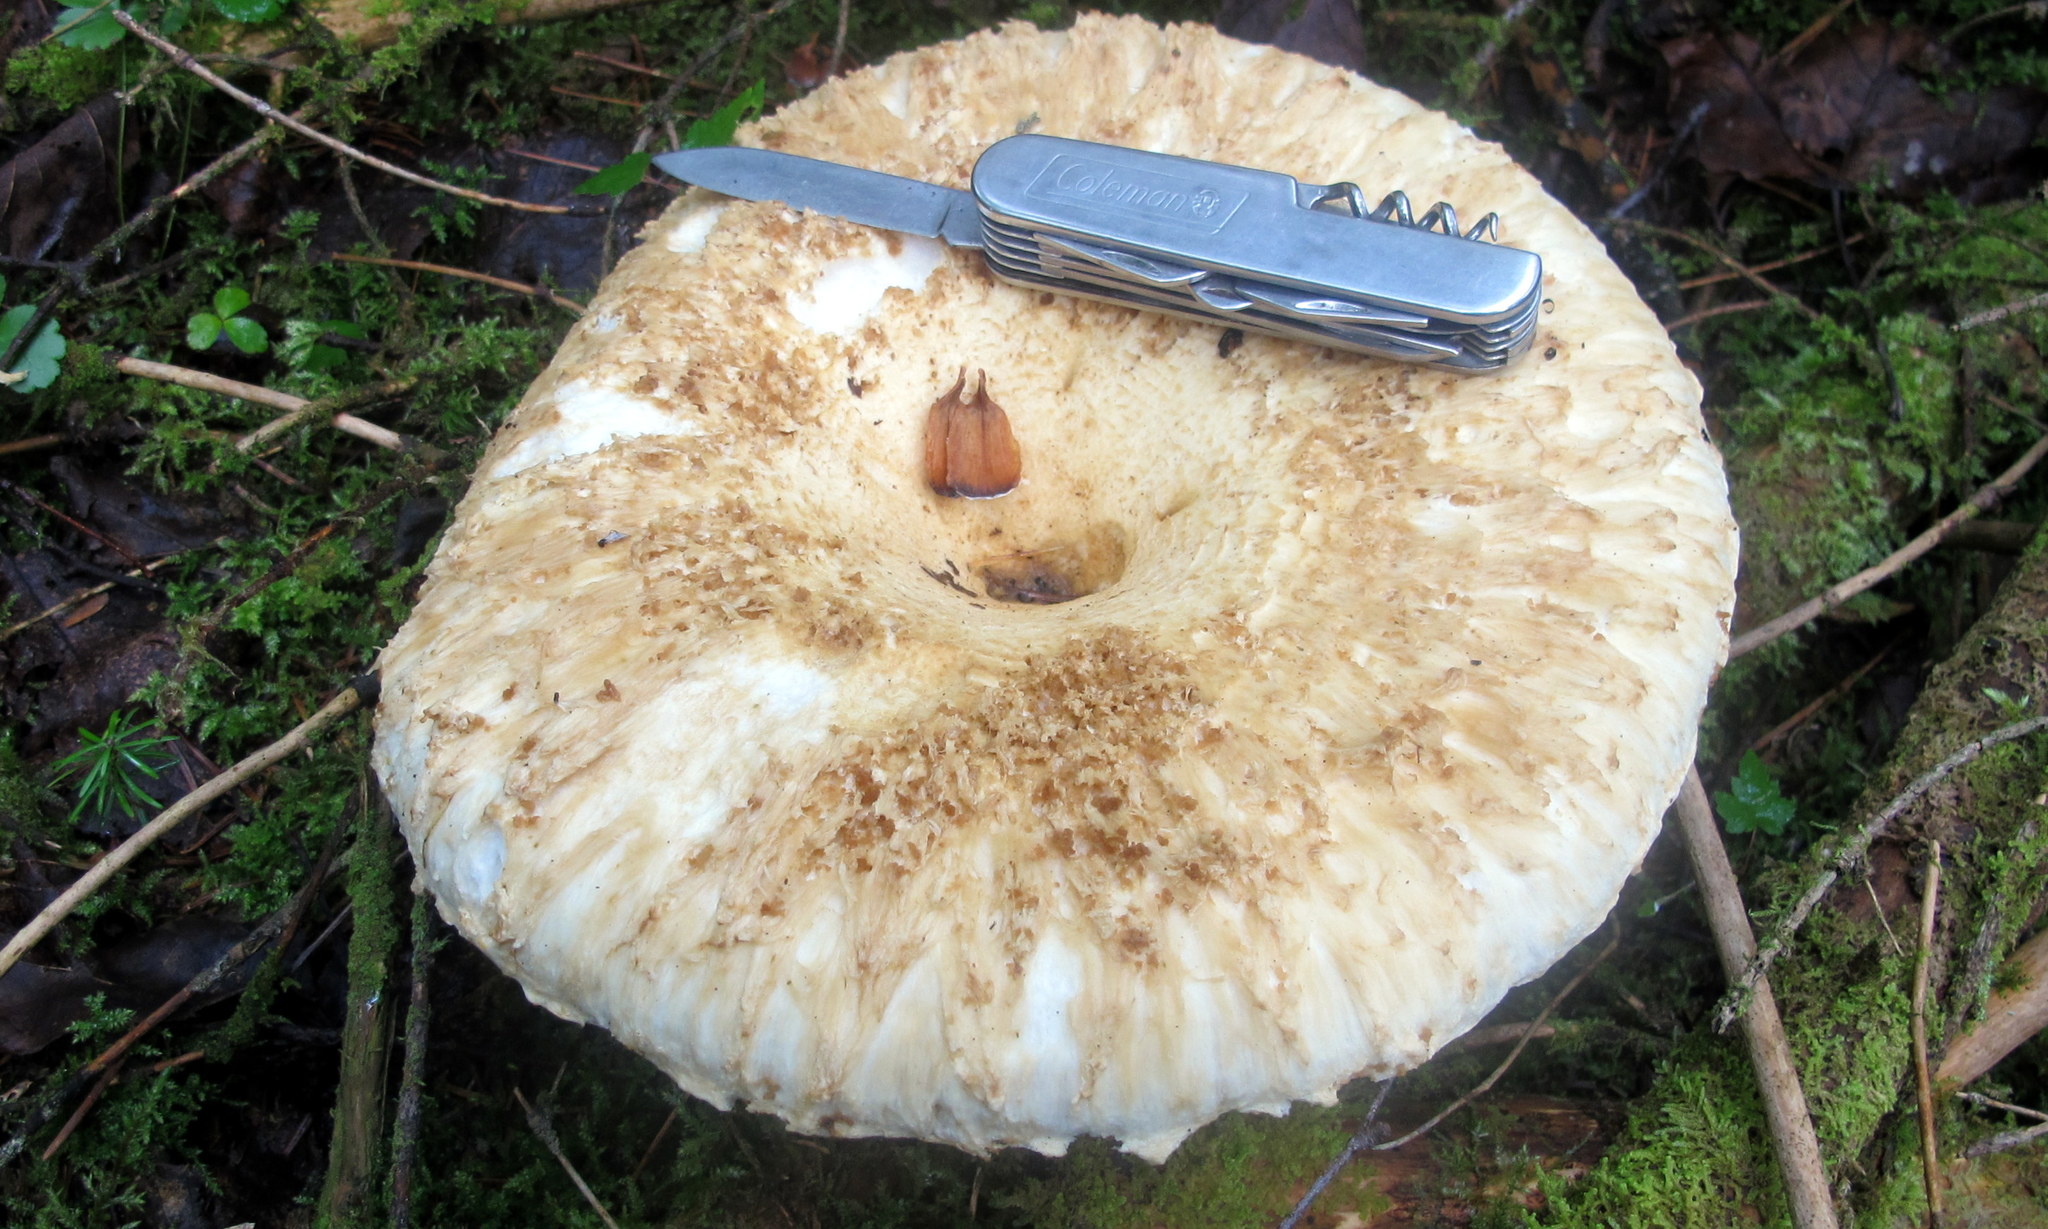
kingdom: Fungi
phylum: Basidiomycota
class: Agaricomycetes
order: Russulales
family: Russulaceae
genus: Lactifluus
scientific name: Lactifluus
